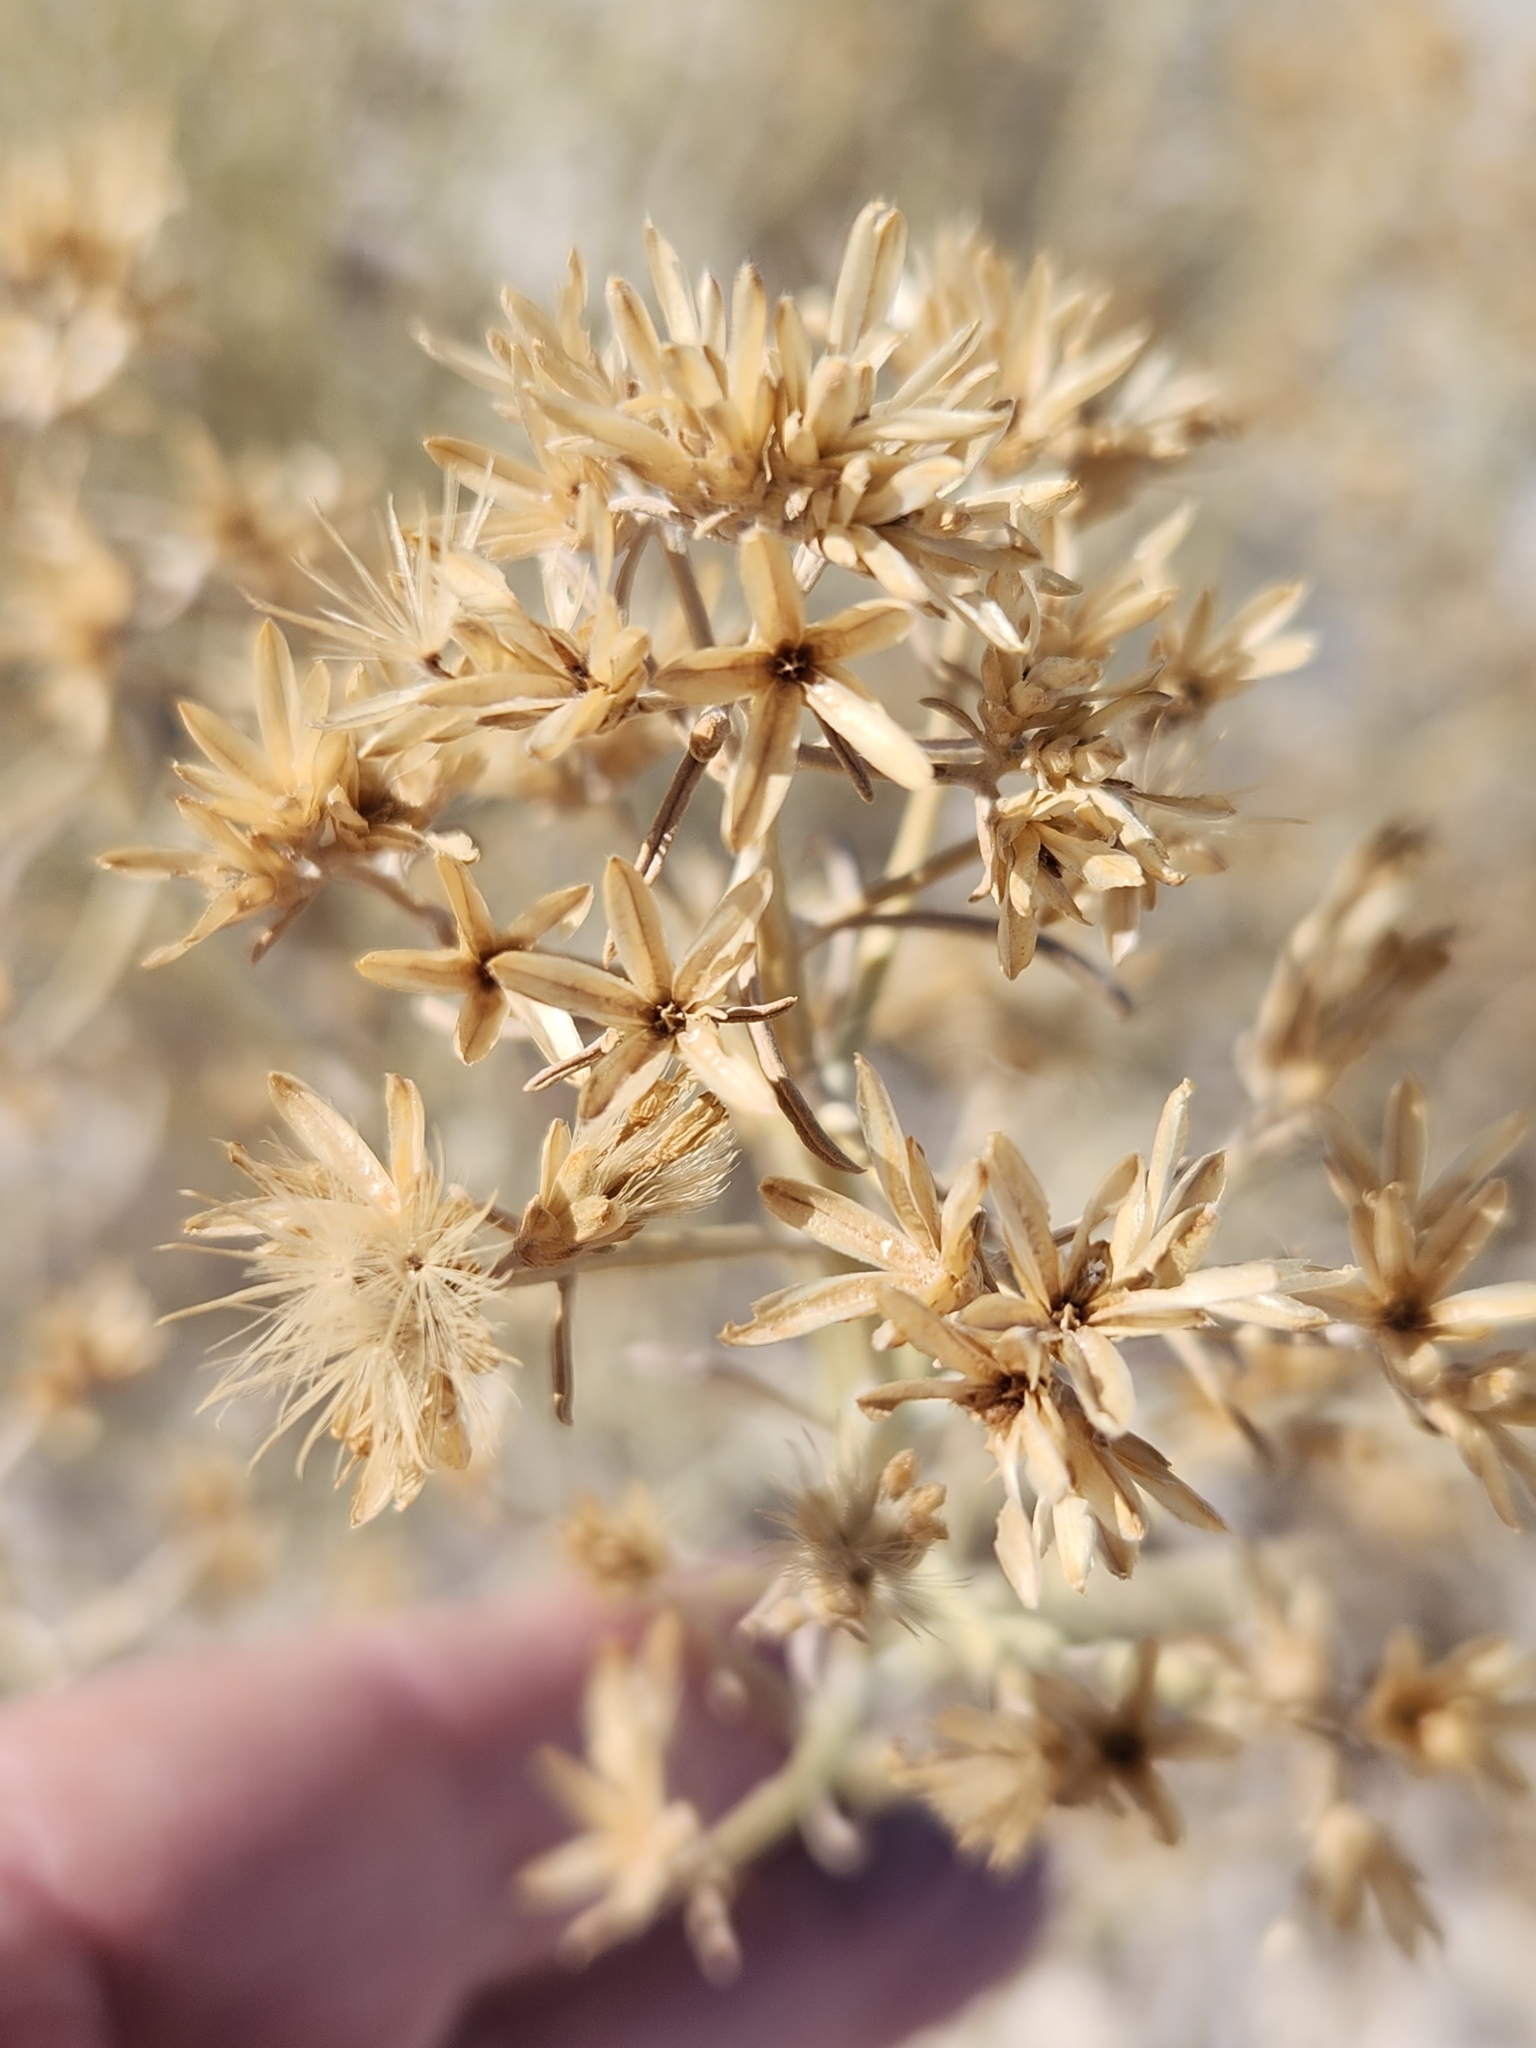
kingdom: Plantae
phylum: Tracheophyta
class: Magnoliopsida
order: Asterales
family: Asteraceae
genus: Ericameria
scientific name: Ericameria nauseosa
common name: Rubber rabbitbrush
